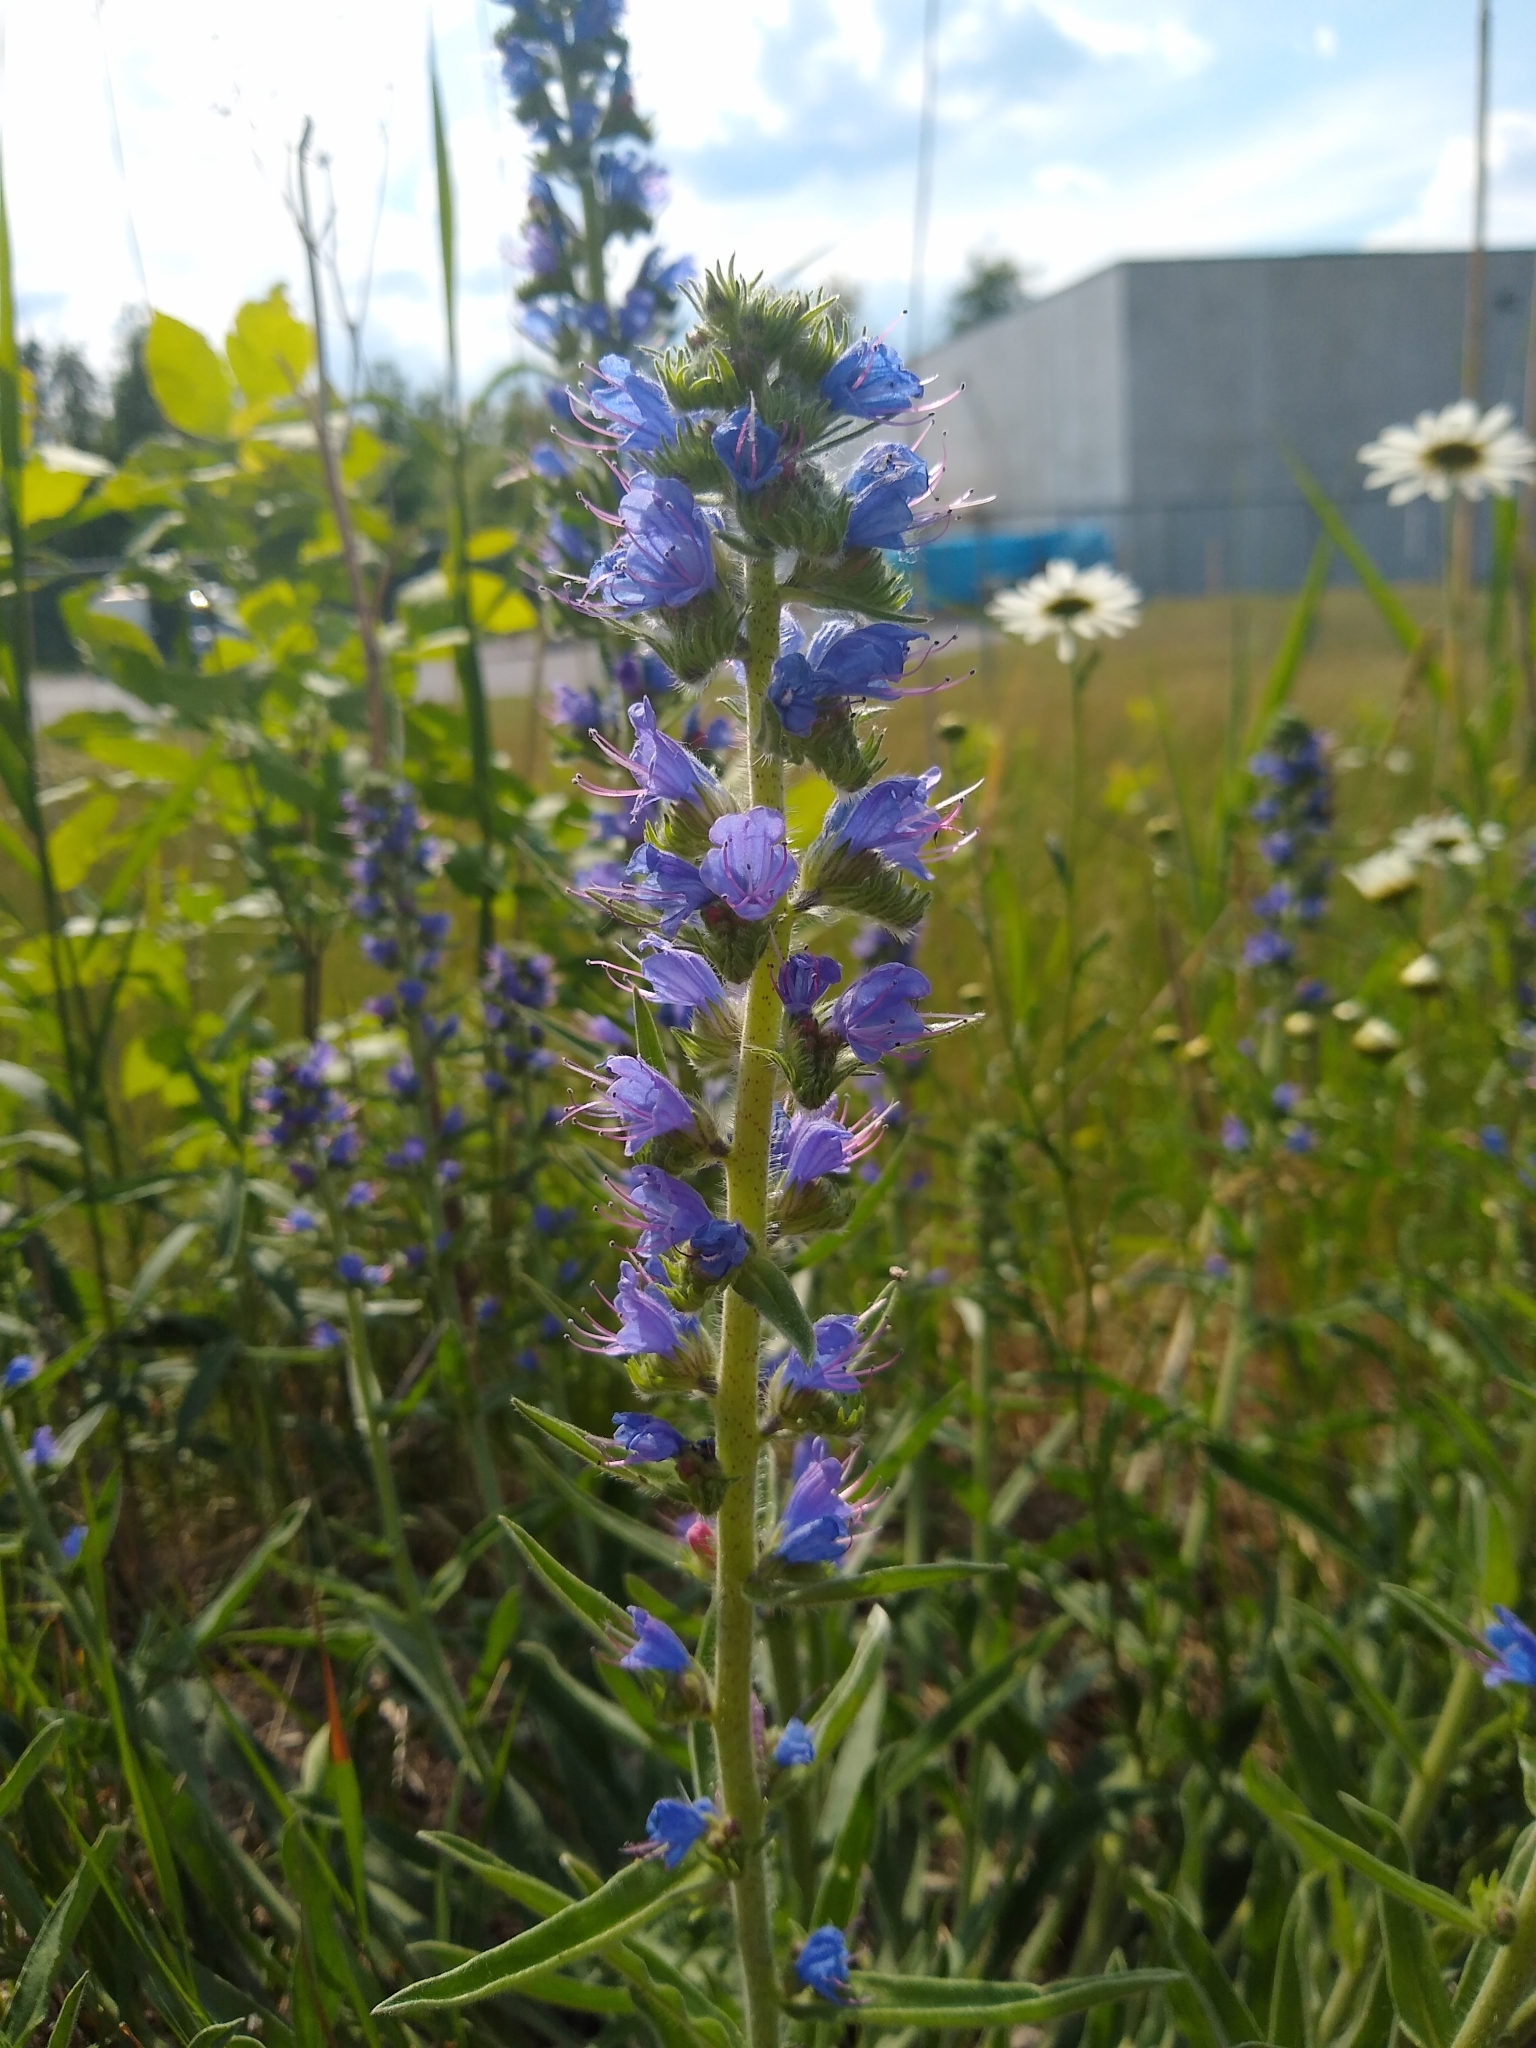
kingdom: Plantae
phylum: Tracheophyta
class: Magnoliopsida
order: Boraginales
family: Boraginaceae
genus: Echium
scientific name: Echium vulgare
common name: Common viper's bugloss
